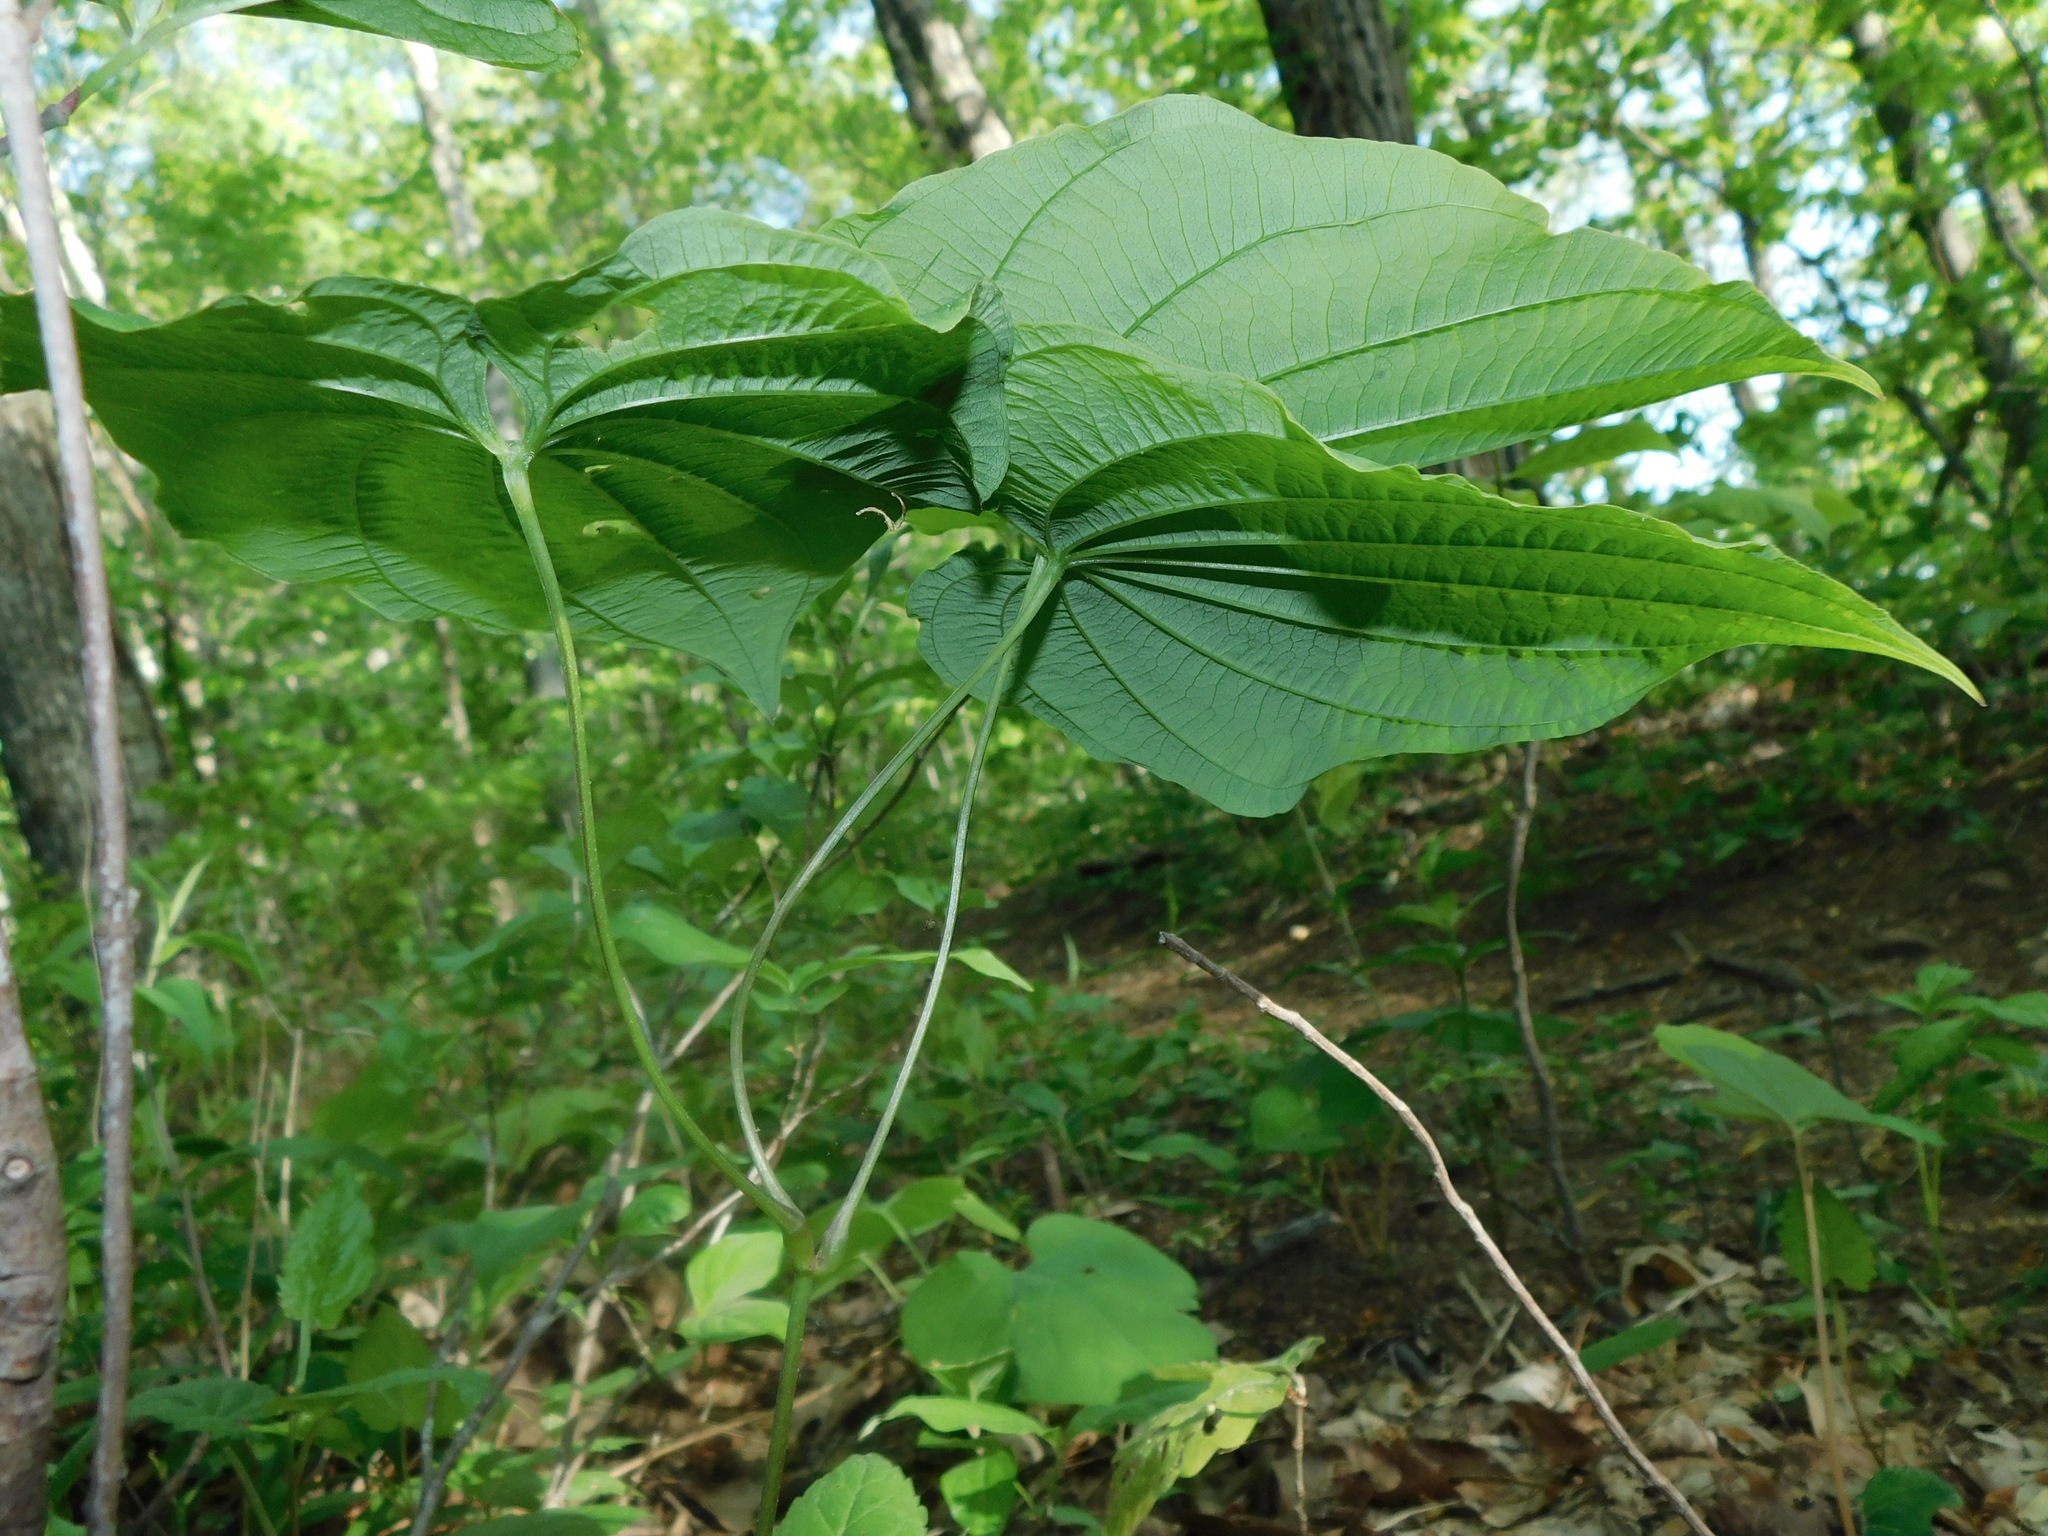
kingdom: Plantae
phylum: Tracheophyta
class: Liliopsida
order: Dioscoreales
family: Dioscoreaceae
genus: Dioscorea
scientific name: Dioscorea quaternata
